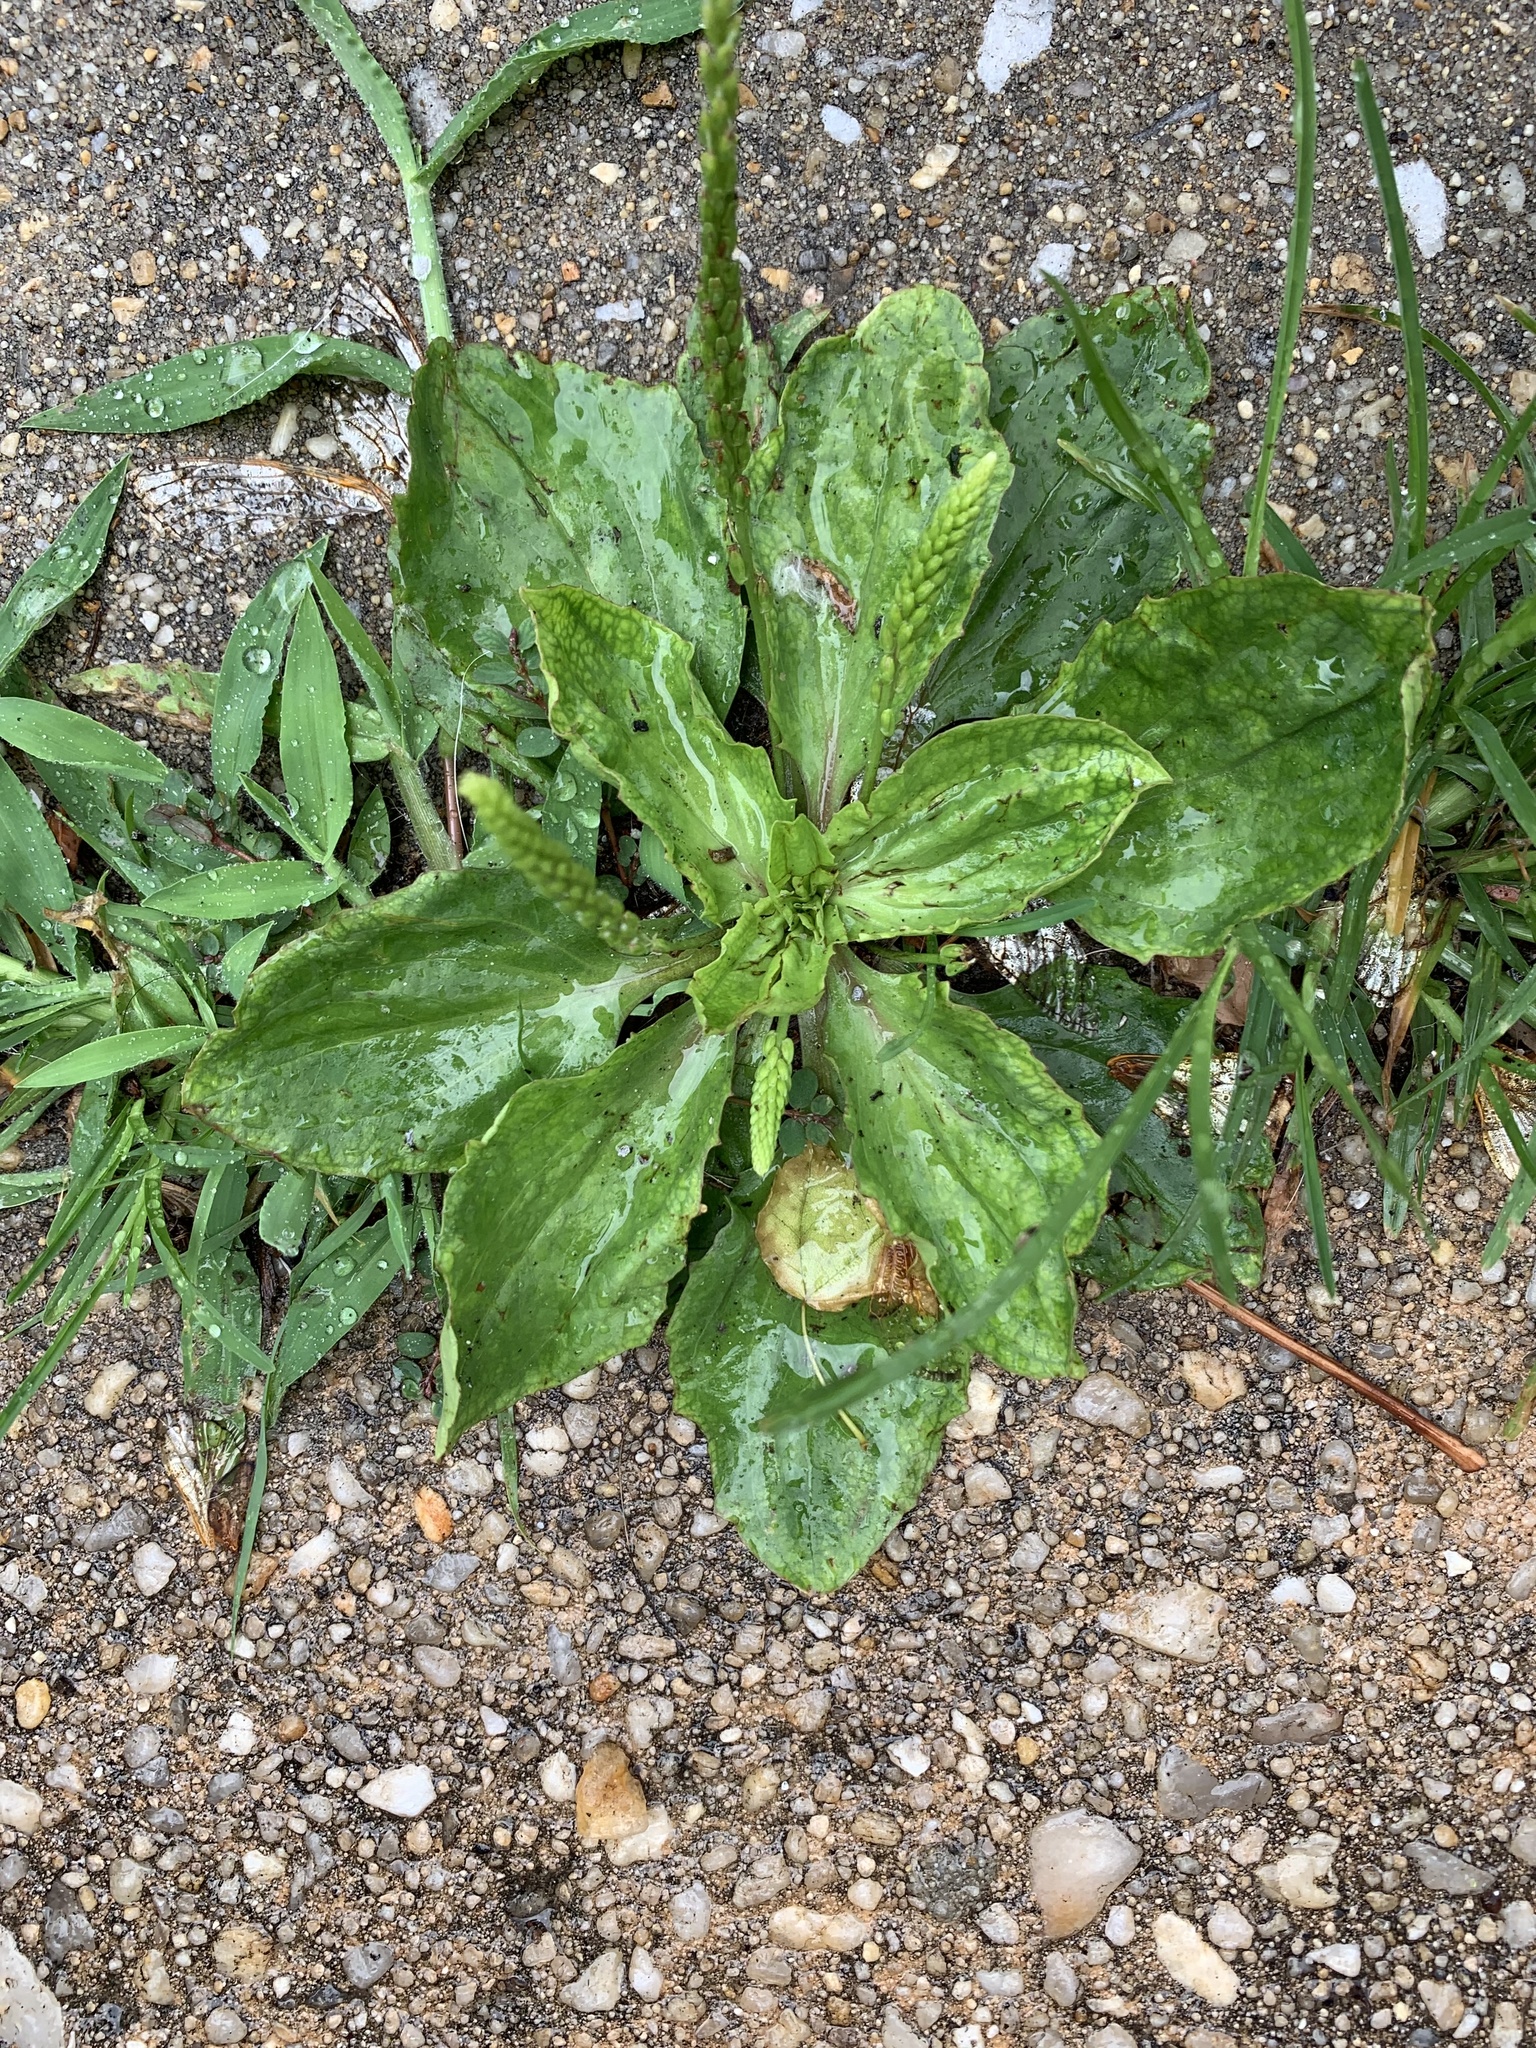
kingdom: Plantae
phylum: Tracheophyta
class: Magnoliopsida
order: Lamiales
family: Plantaginaceae
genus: Plantago
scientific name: Plantago rugelii
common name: American plantain
